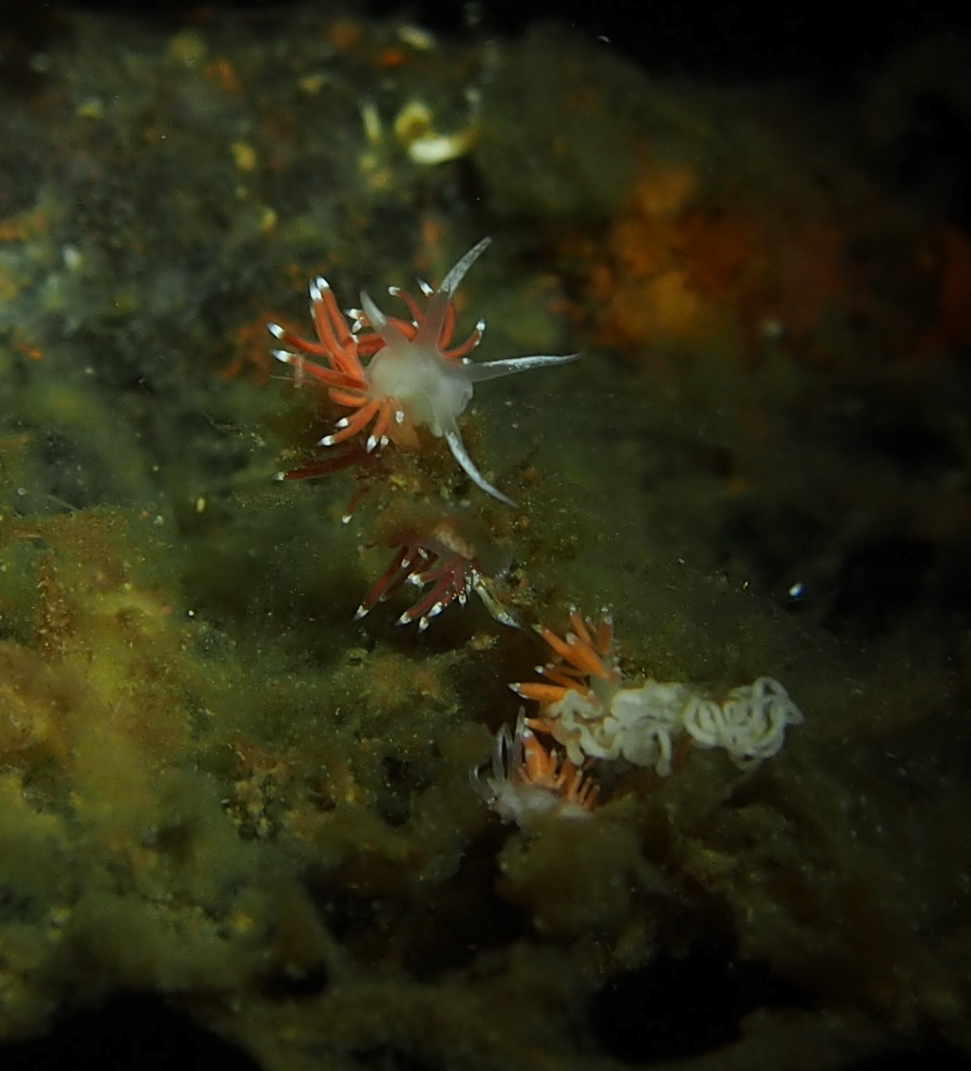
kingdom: Animalia
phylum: Mollusca
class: Gastropoda
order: Nudibranchia
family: Coryphellidae
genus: Coryphella
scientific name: Coryphella gracilis
